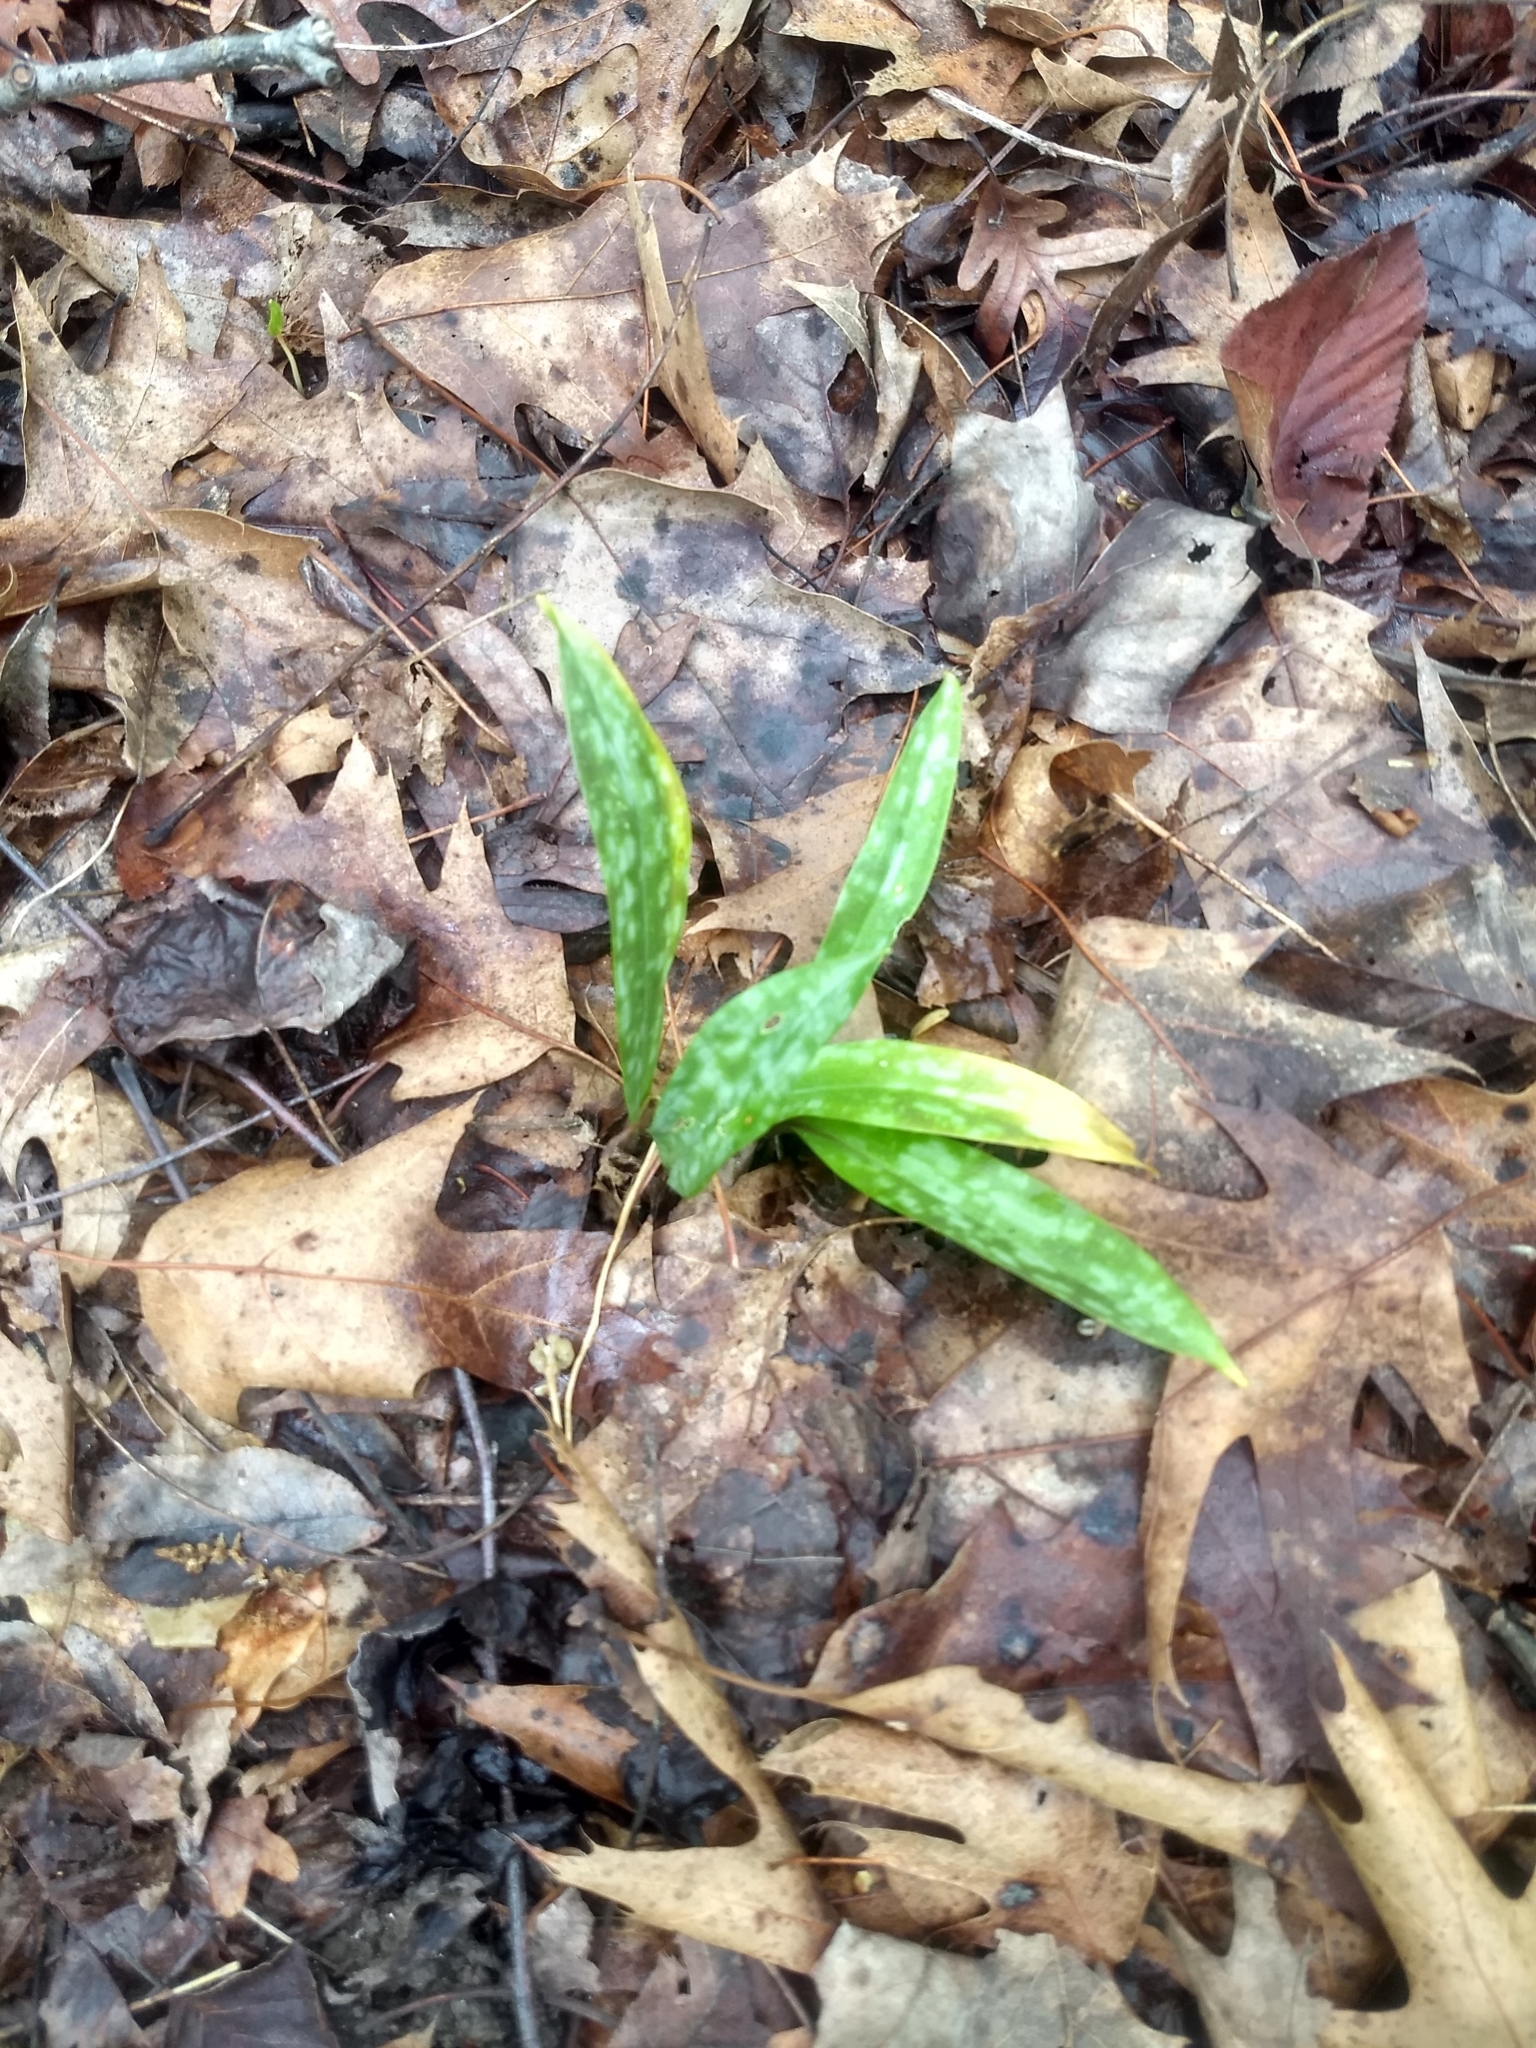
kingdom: Plantae
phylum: Tracheophyta
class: Liliopsida
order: Liliales
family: Liliaceae
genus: Erythronium
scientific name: Erythronium umbilicatum
